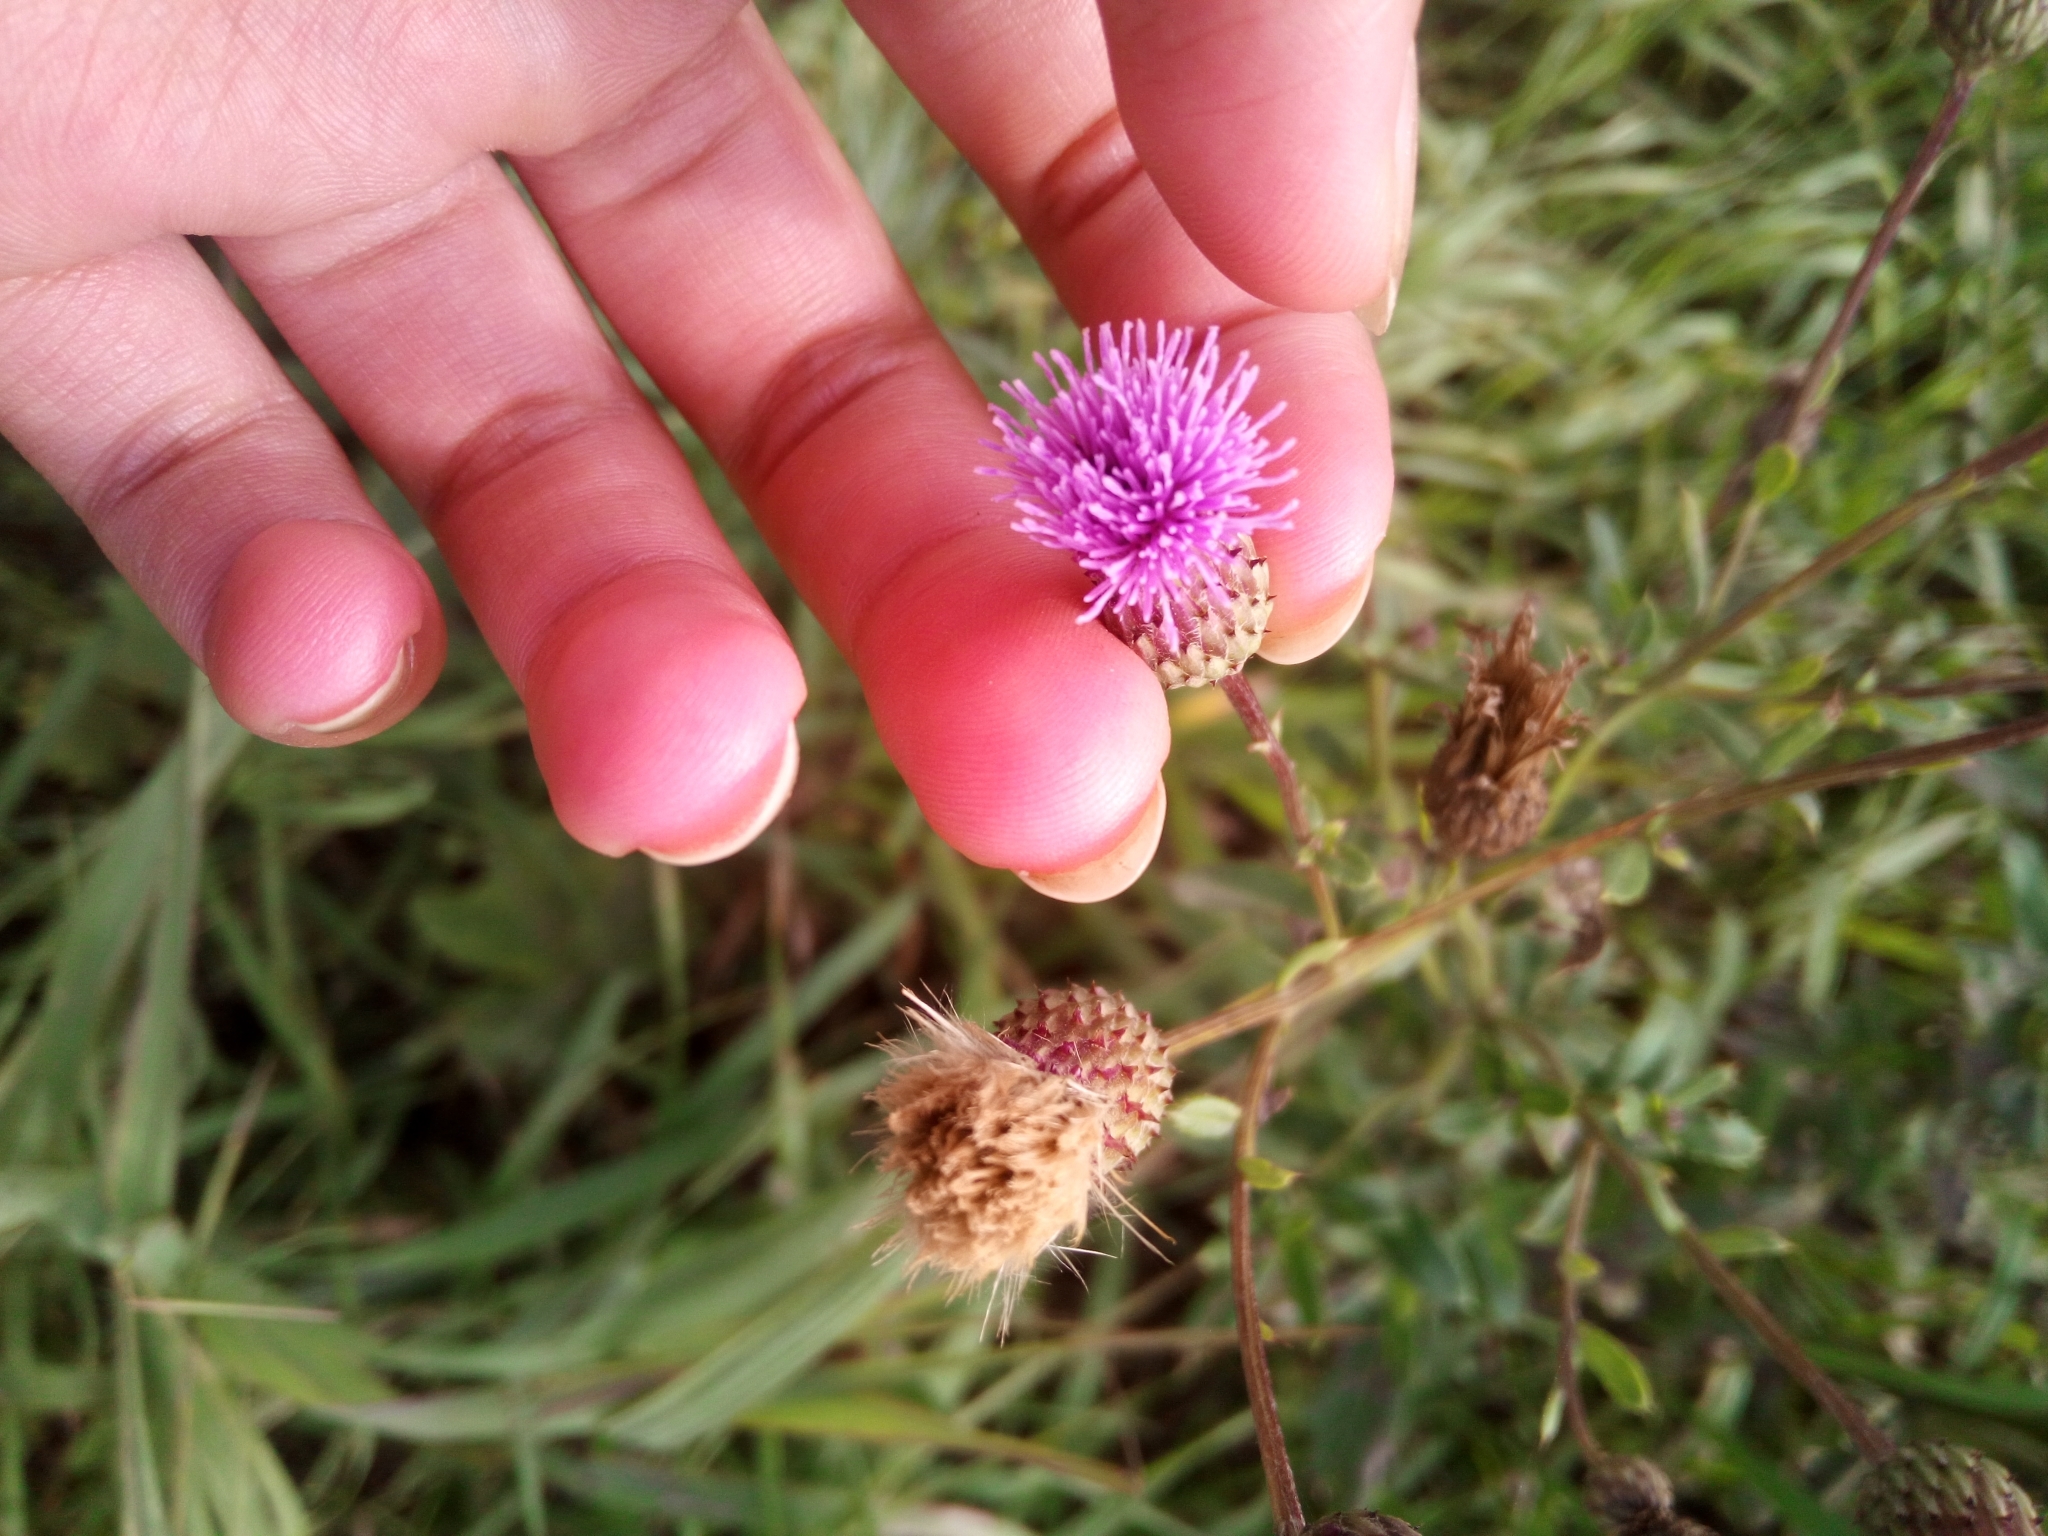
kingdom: Plantae
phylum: Tracheophyta
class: Magnoliopsida
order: Asterales
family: Asteraceae
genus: Cirsium
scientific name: Cirsium arvense
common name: Creeping thistle
